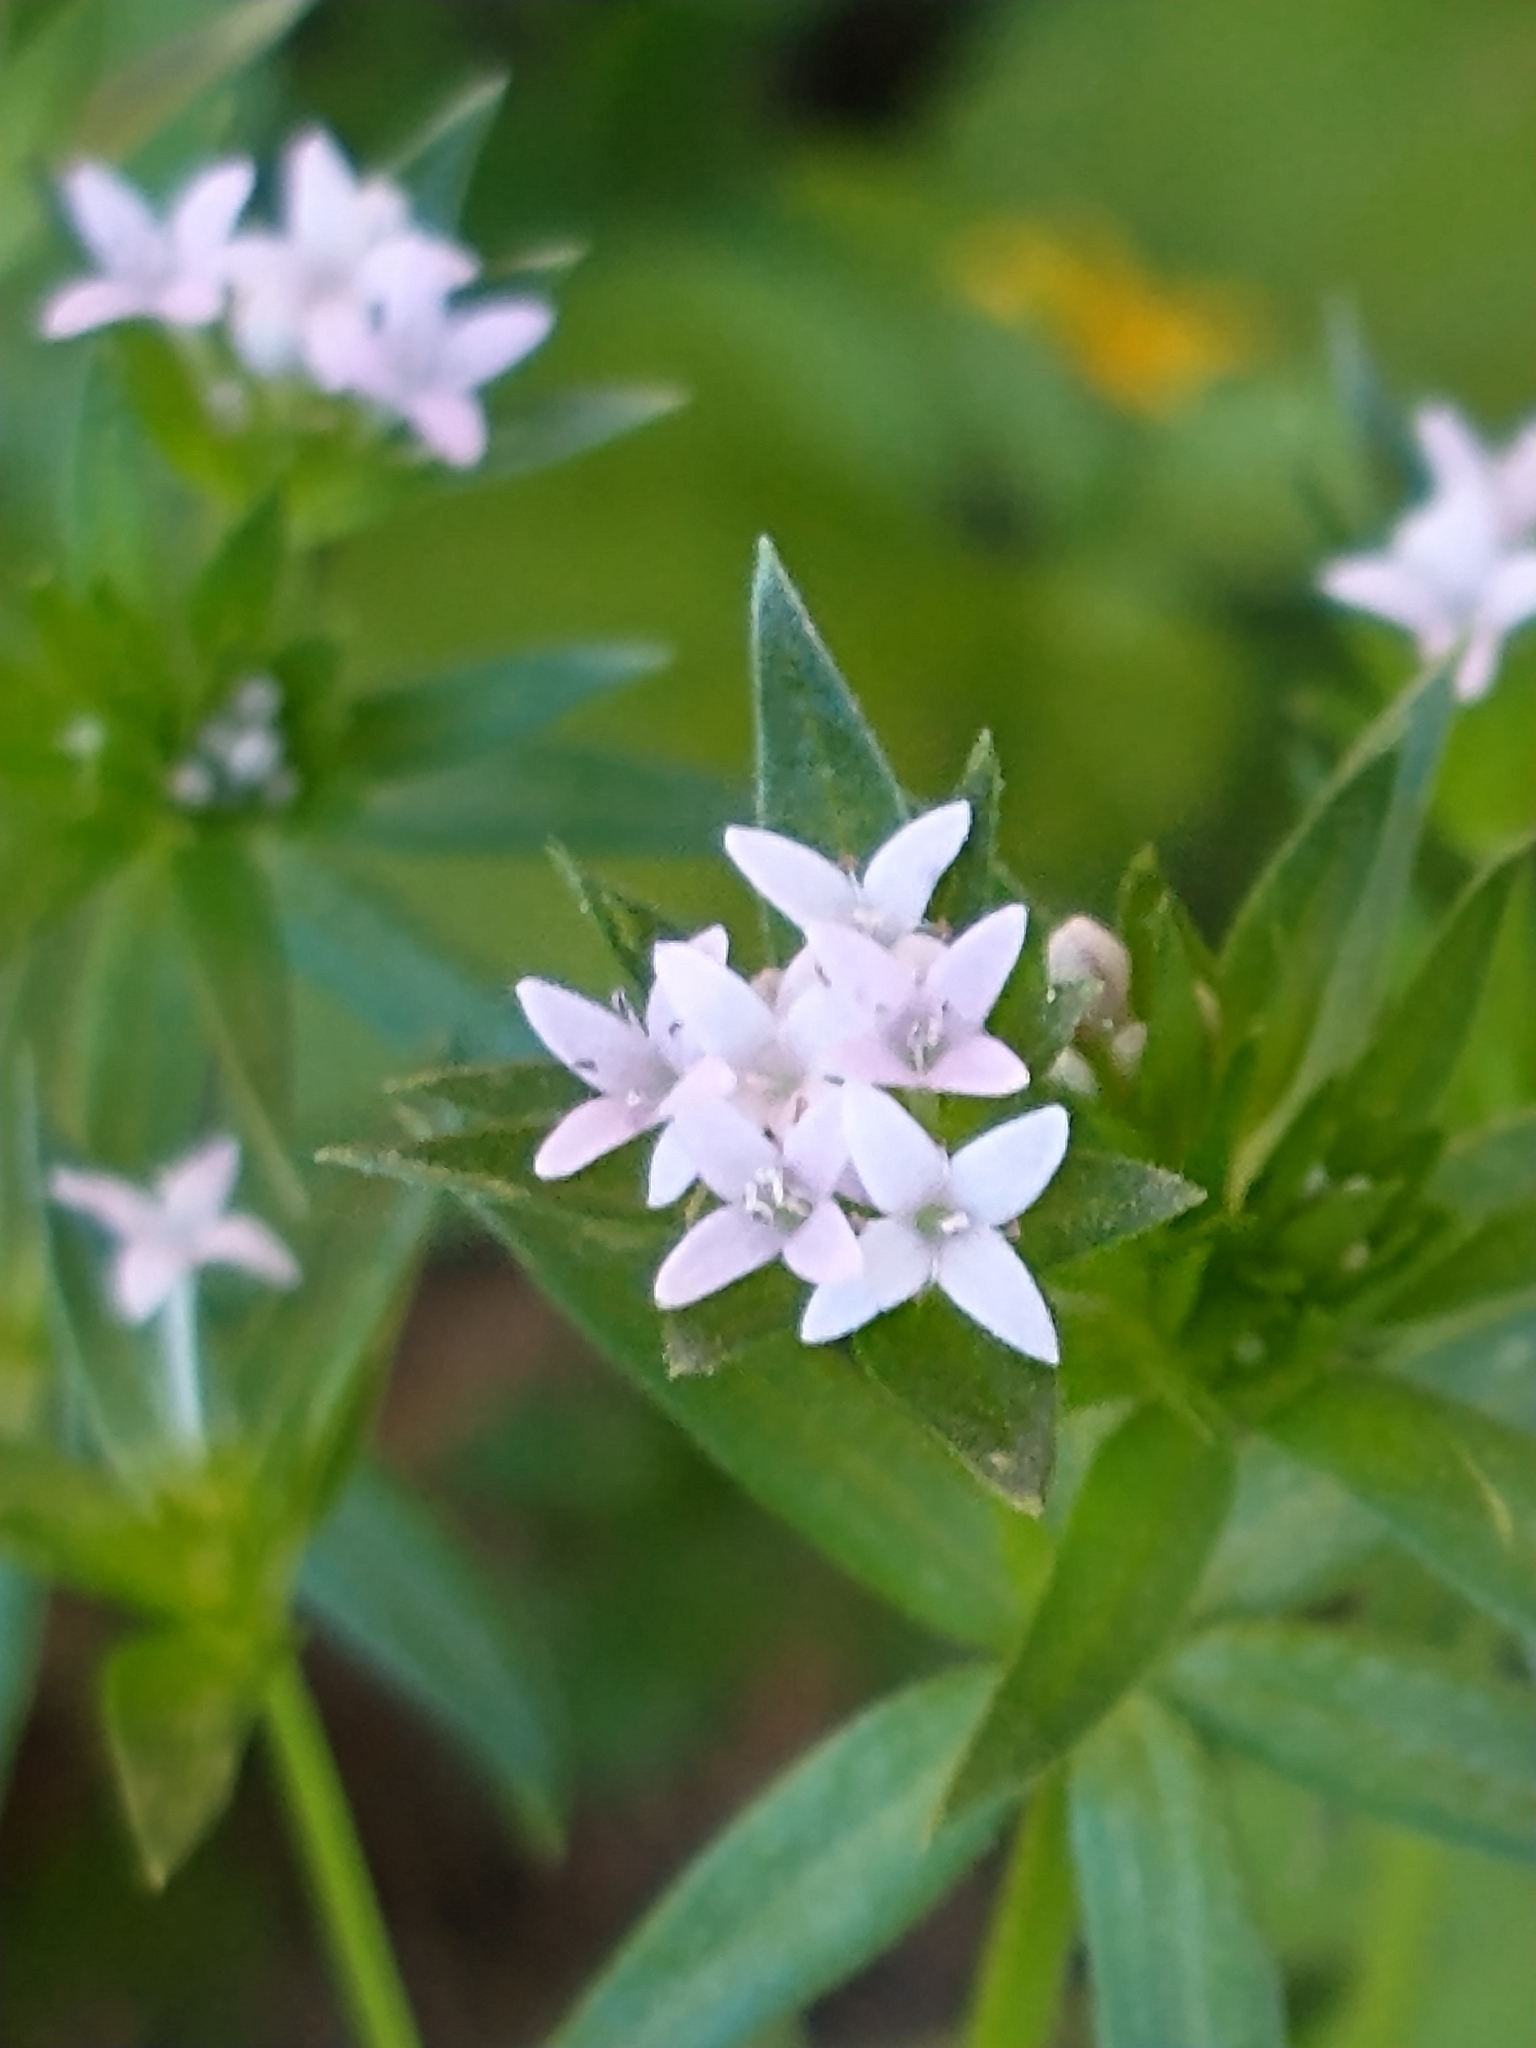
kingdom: Plantae
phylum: Tracheophyta
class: Magnoliopsida
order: Gentianales
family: Rubiaceae
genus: Sherardia
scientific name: Sherardia arvensis
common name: Field madder
